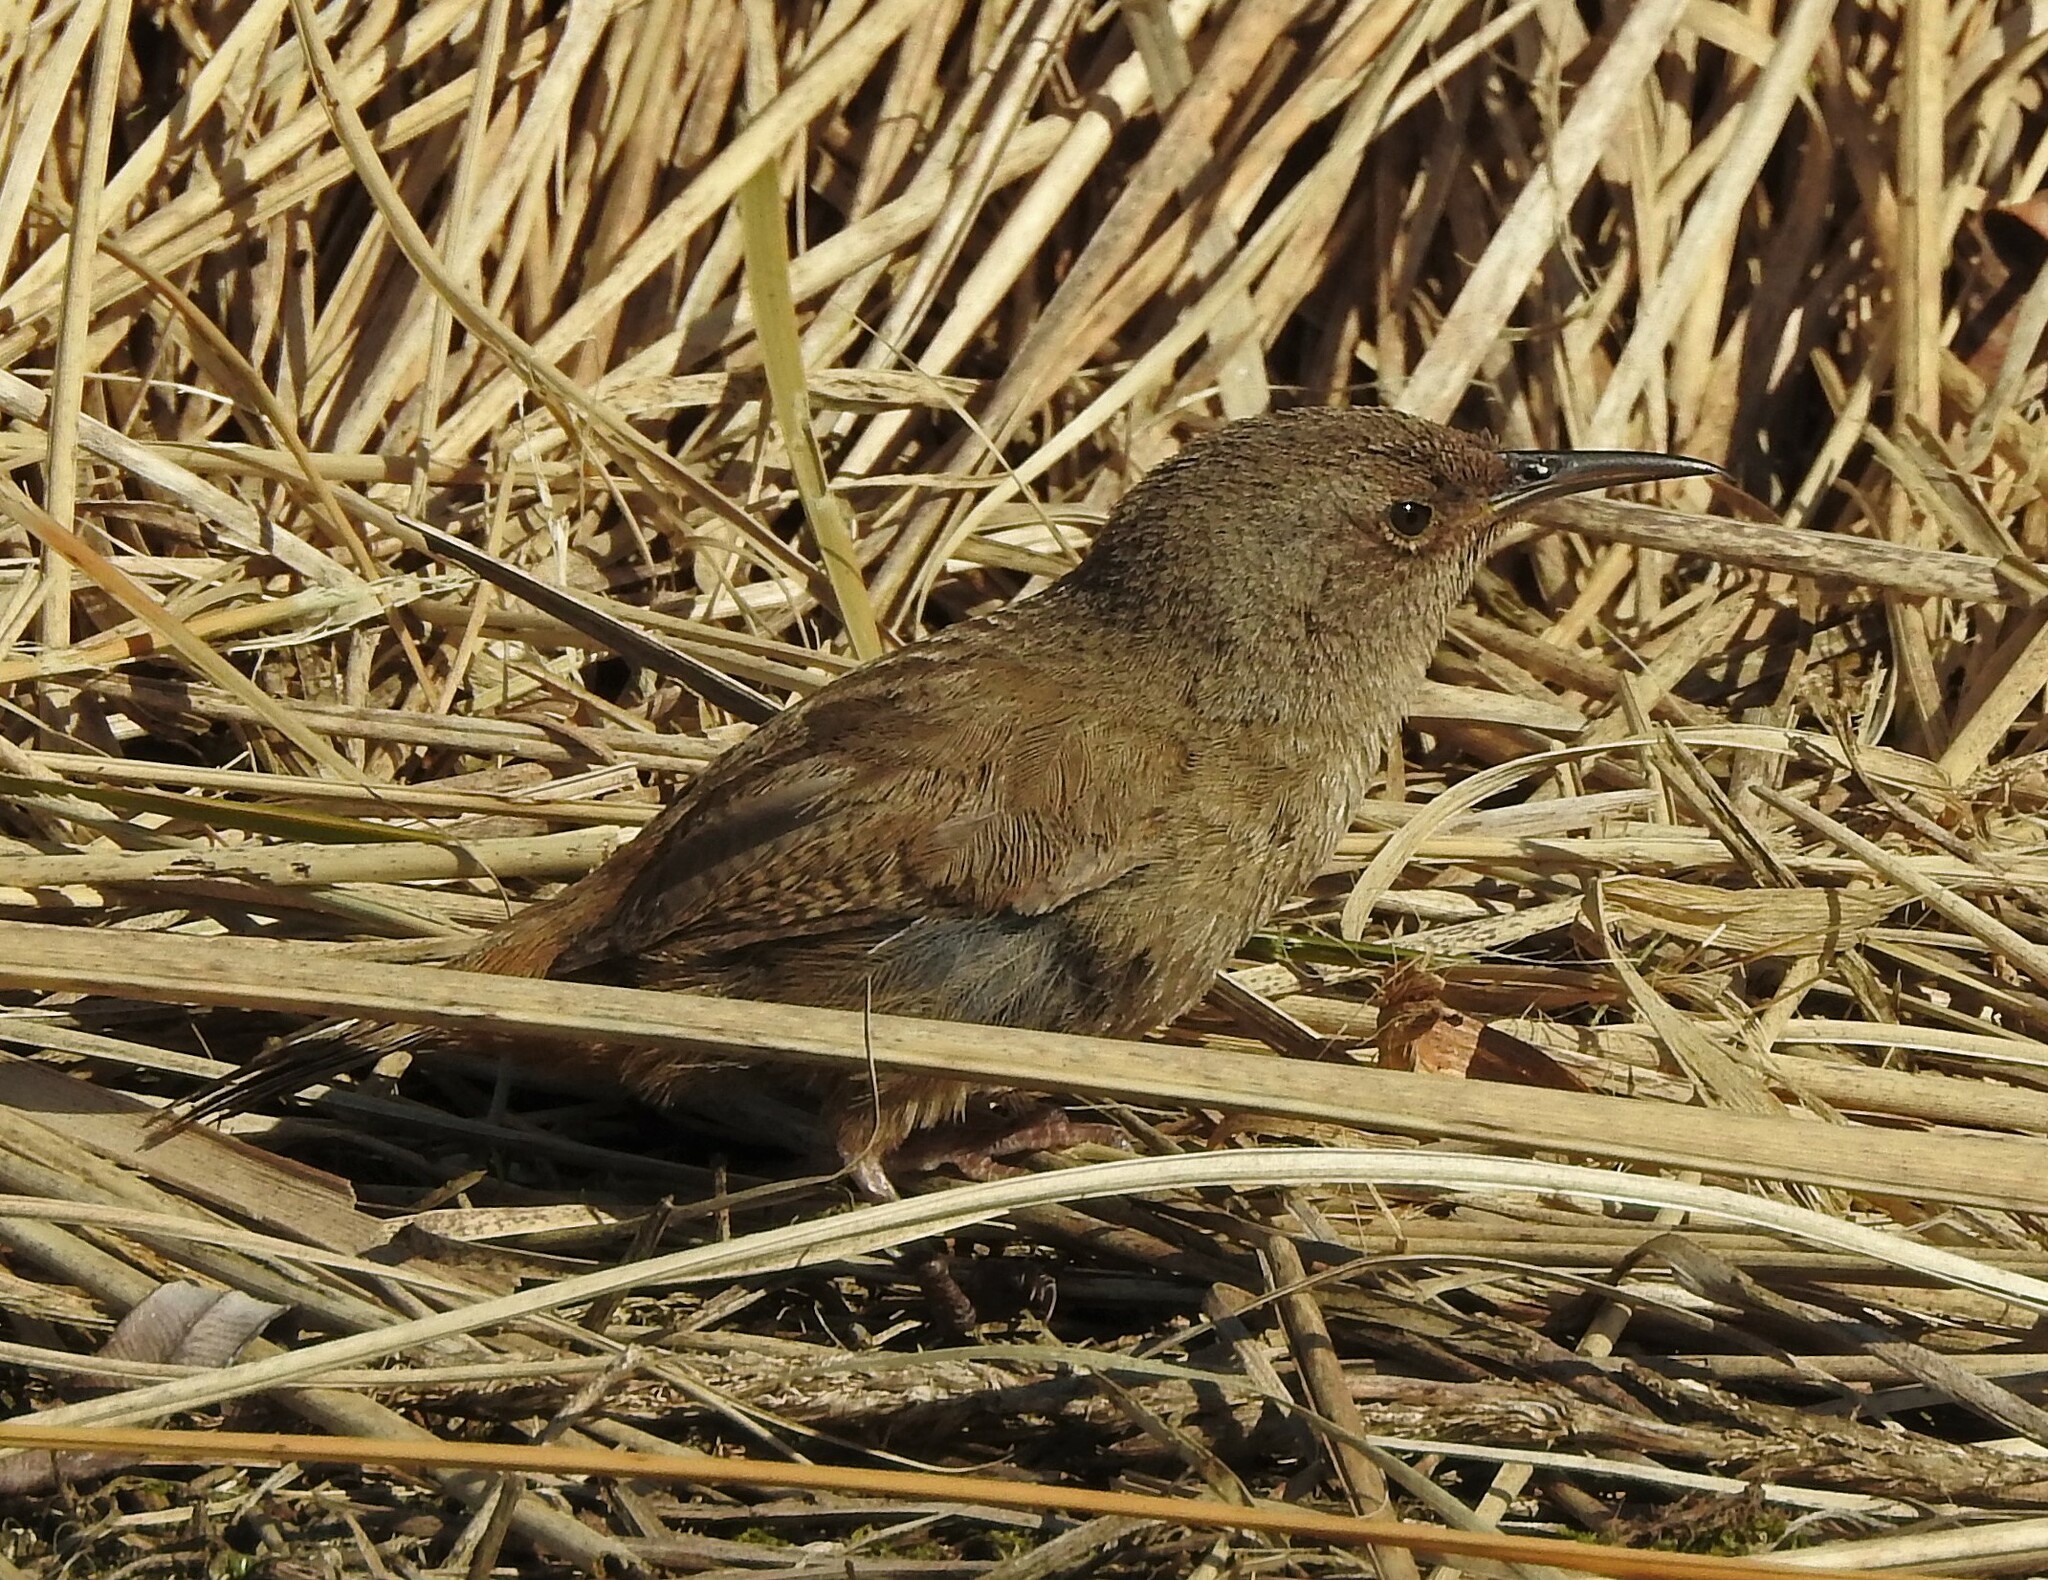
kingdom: Animalia
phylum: Chordata
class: Aves
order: Passeriformes
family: Troglodytidae
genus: Troglodytes
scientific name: Troglodytes cobbi
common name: Cobb's wren
